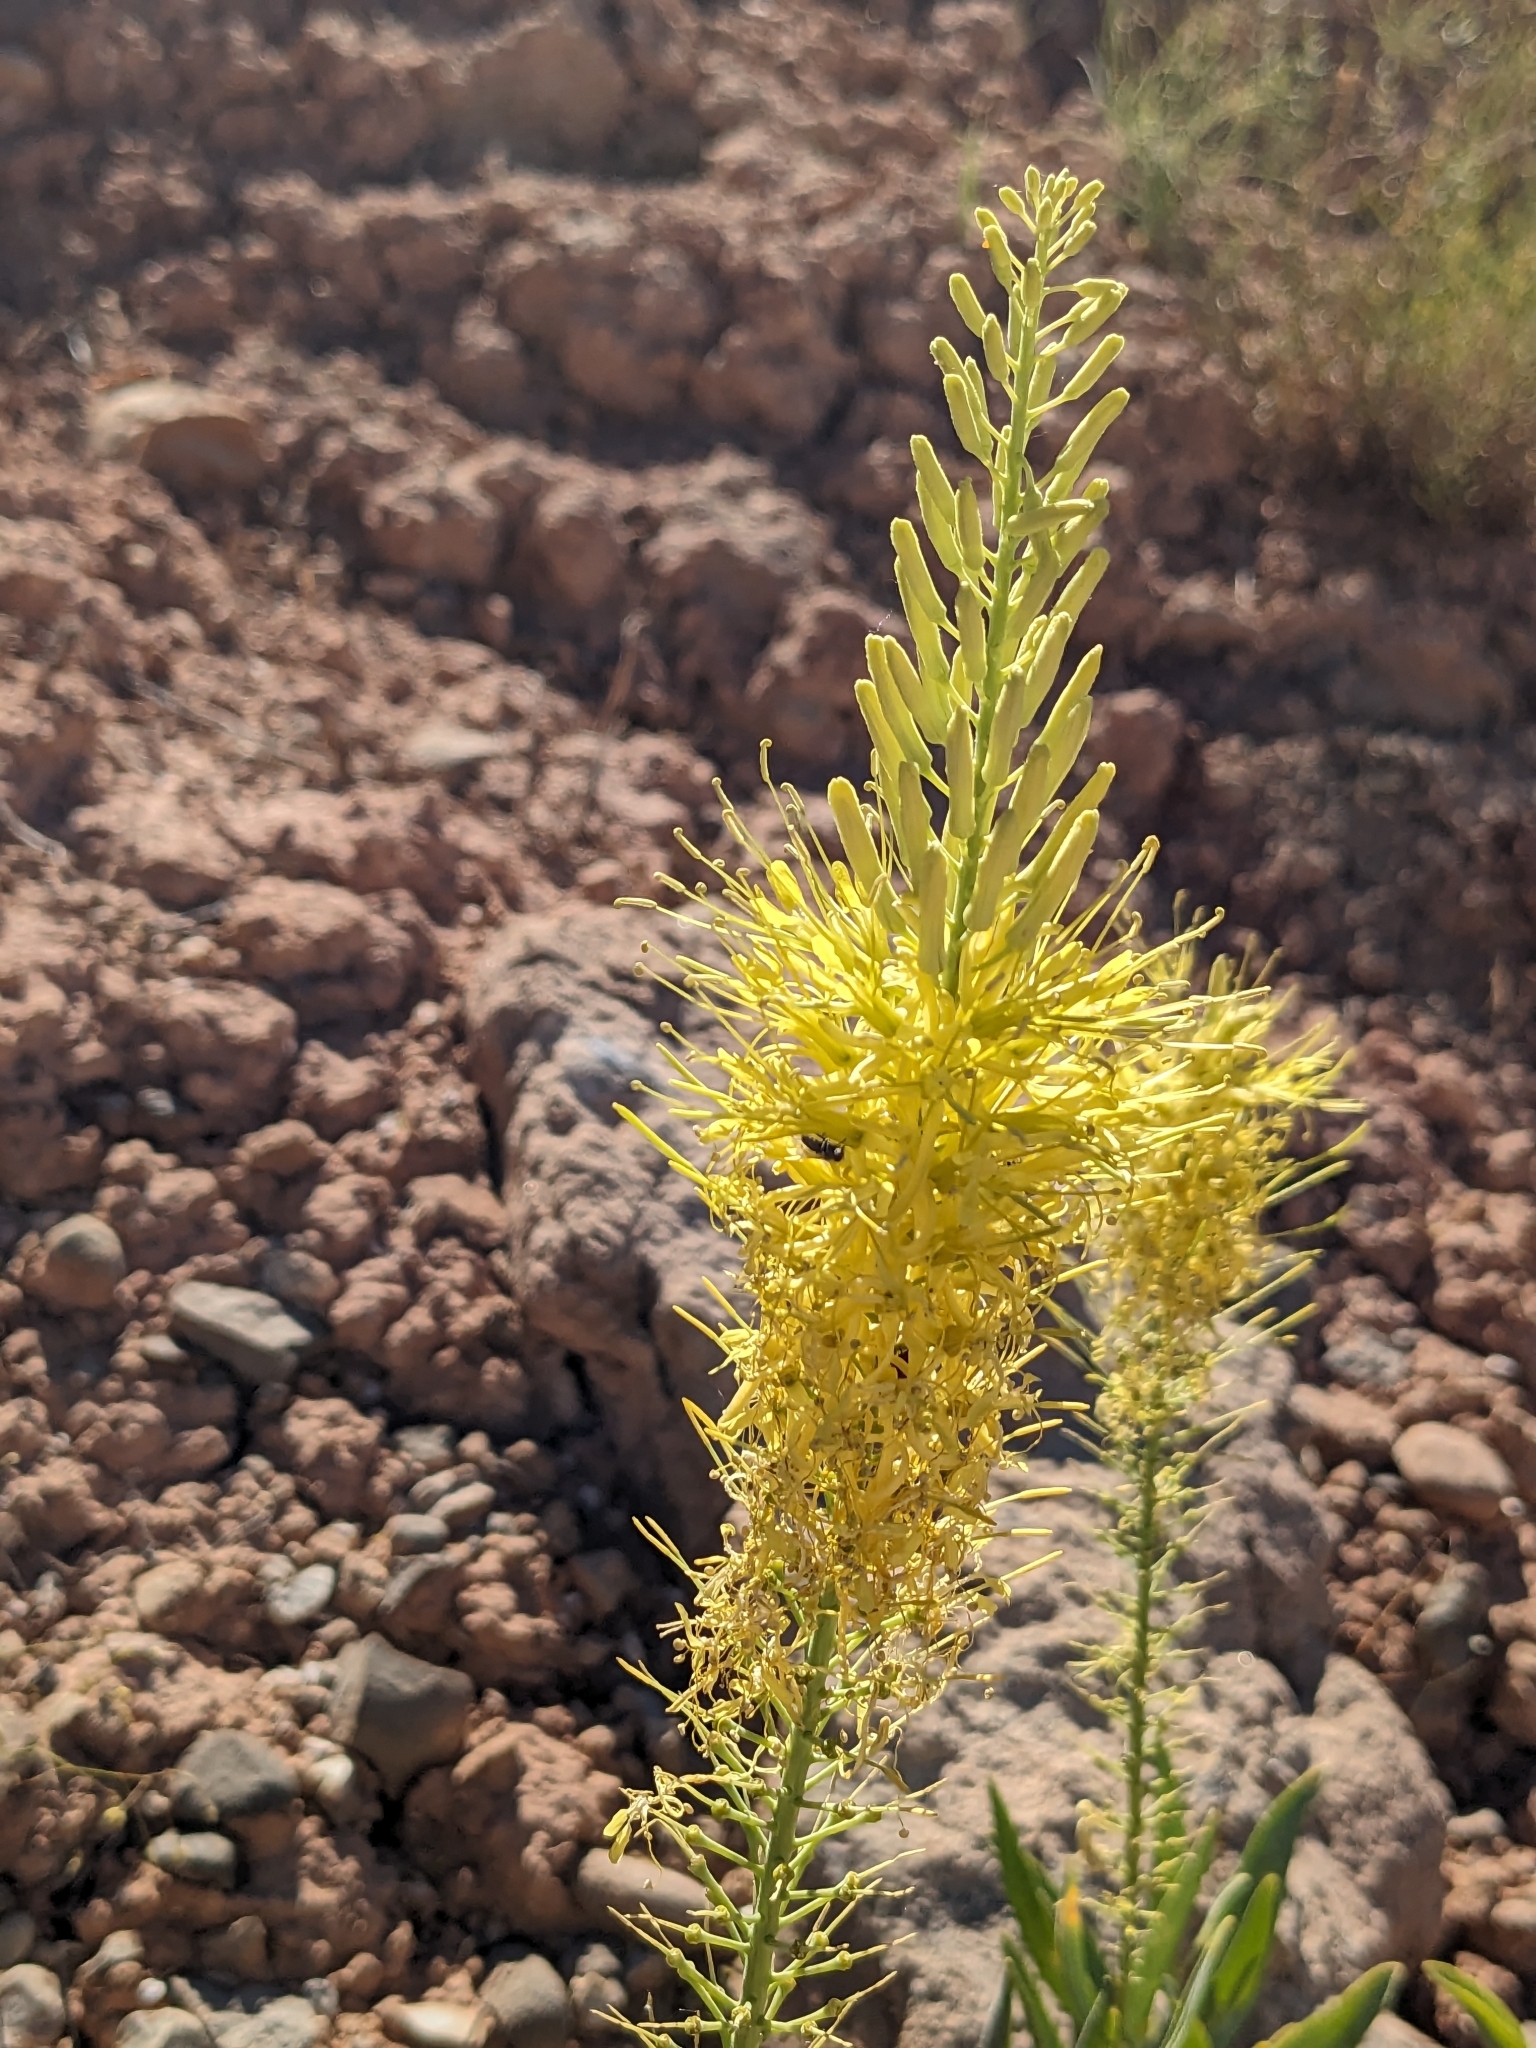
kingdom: Plantae
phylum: Tracheophyta
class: Magnoliopsida
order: Brassicales
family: Brassicaceae
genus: Stanleya
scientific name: Stanleya pinnata
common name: Prince's-plume
